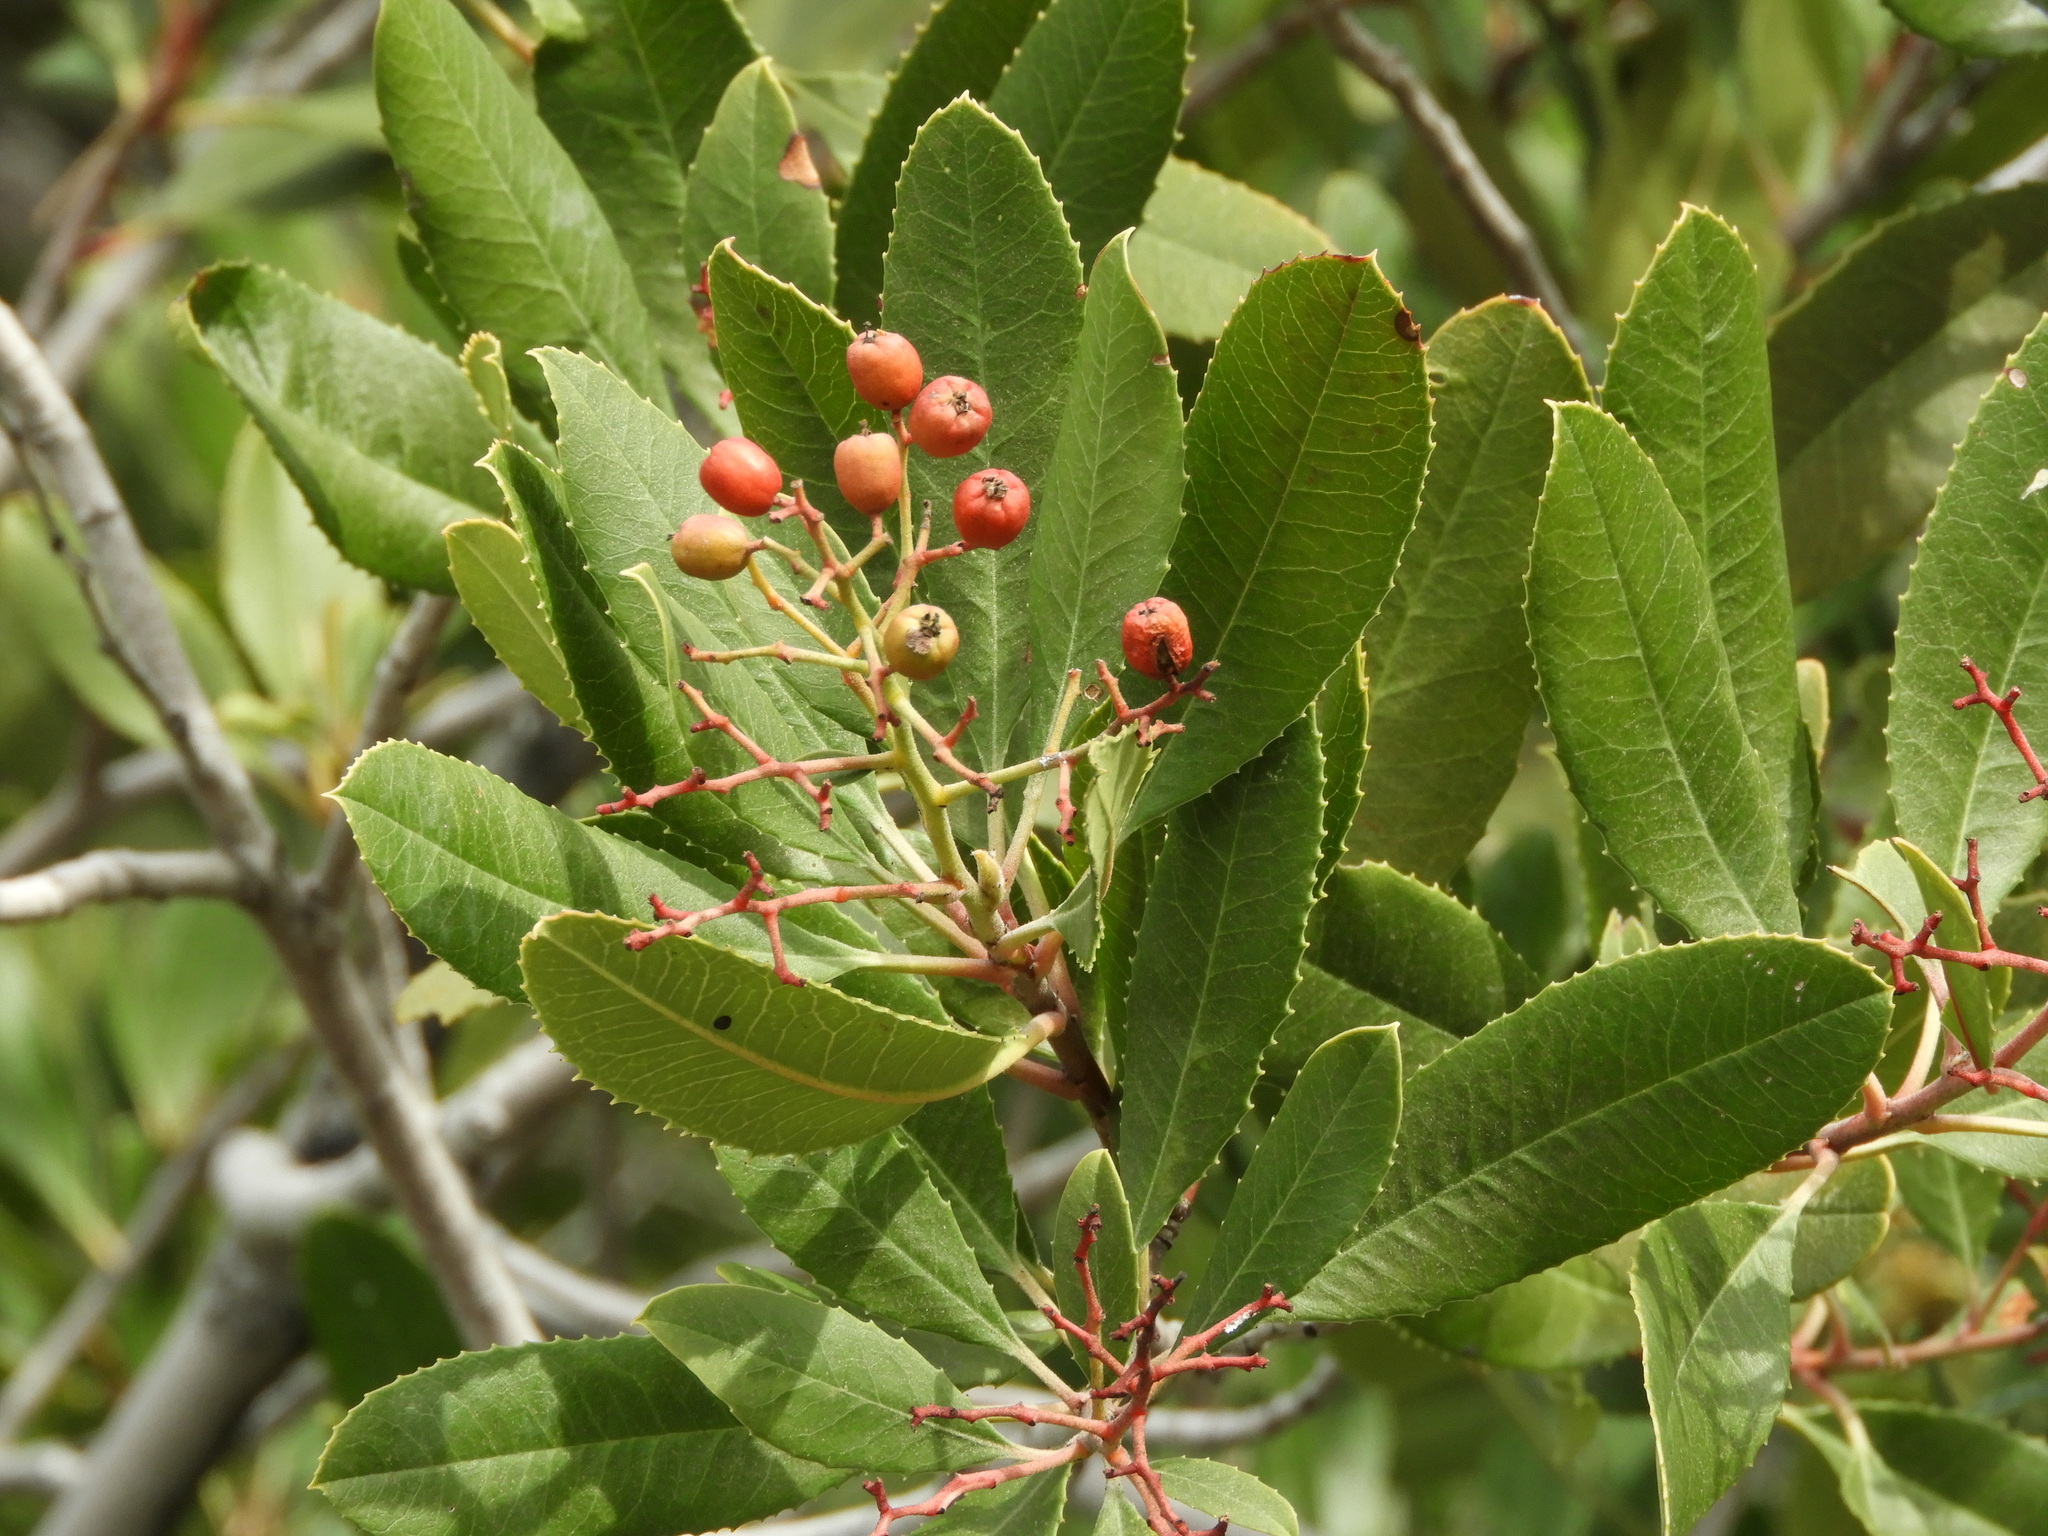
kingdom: Plantae
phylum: Tracheophyta
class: Magnoliopsida
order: Rosales
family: Rosaceae
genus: Heteromeles
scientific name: Heteromeles arbutifolia
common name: California-holly
